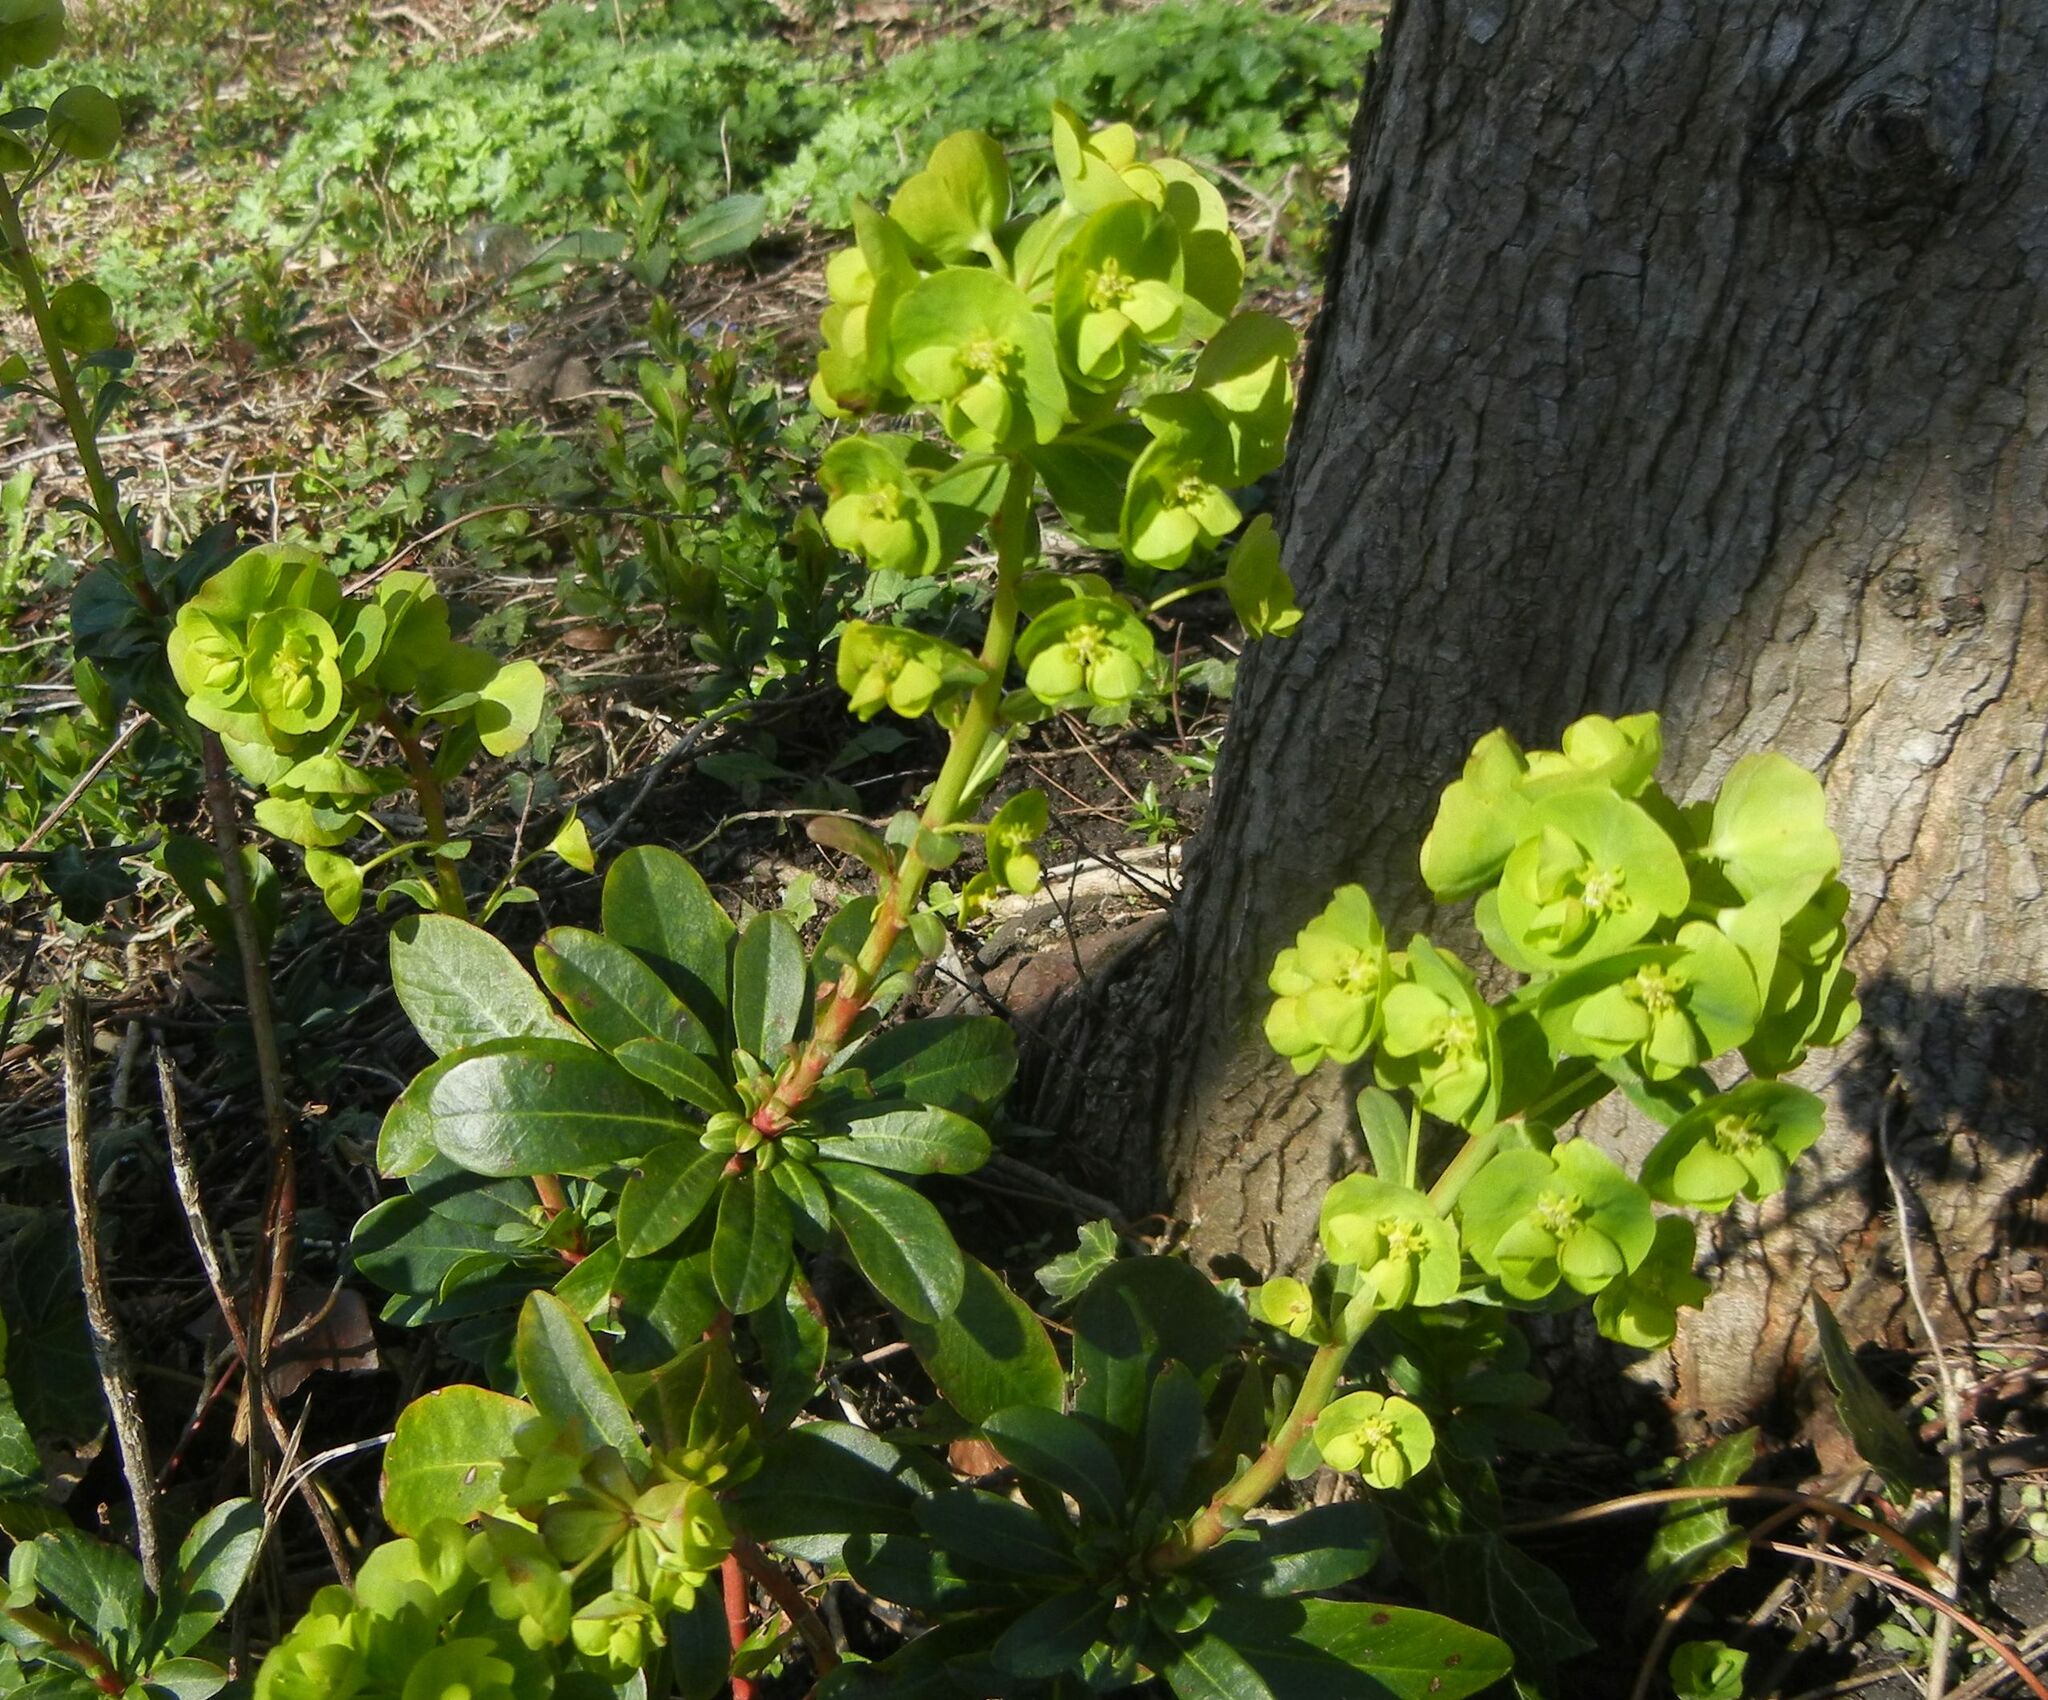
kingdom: Plantae
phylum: Tracheophyta
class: Magnoliopsida
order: Malpighiales
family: Euphorbiaceae
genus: Euphorbia
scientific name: Euphorbia amygdaloides
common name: Wood spurge
